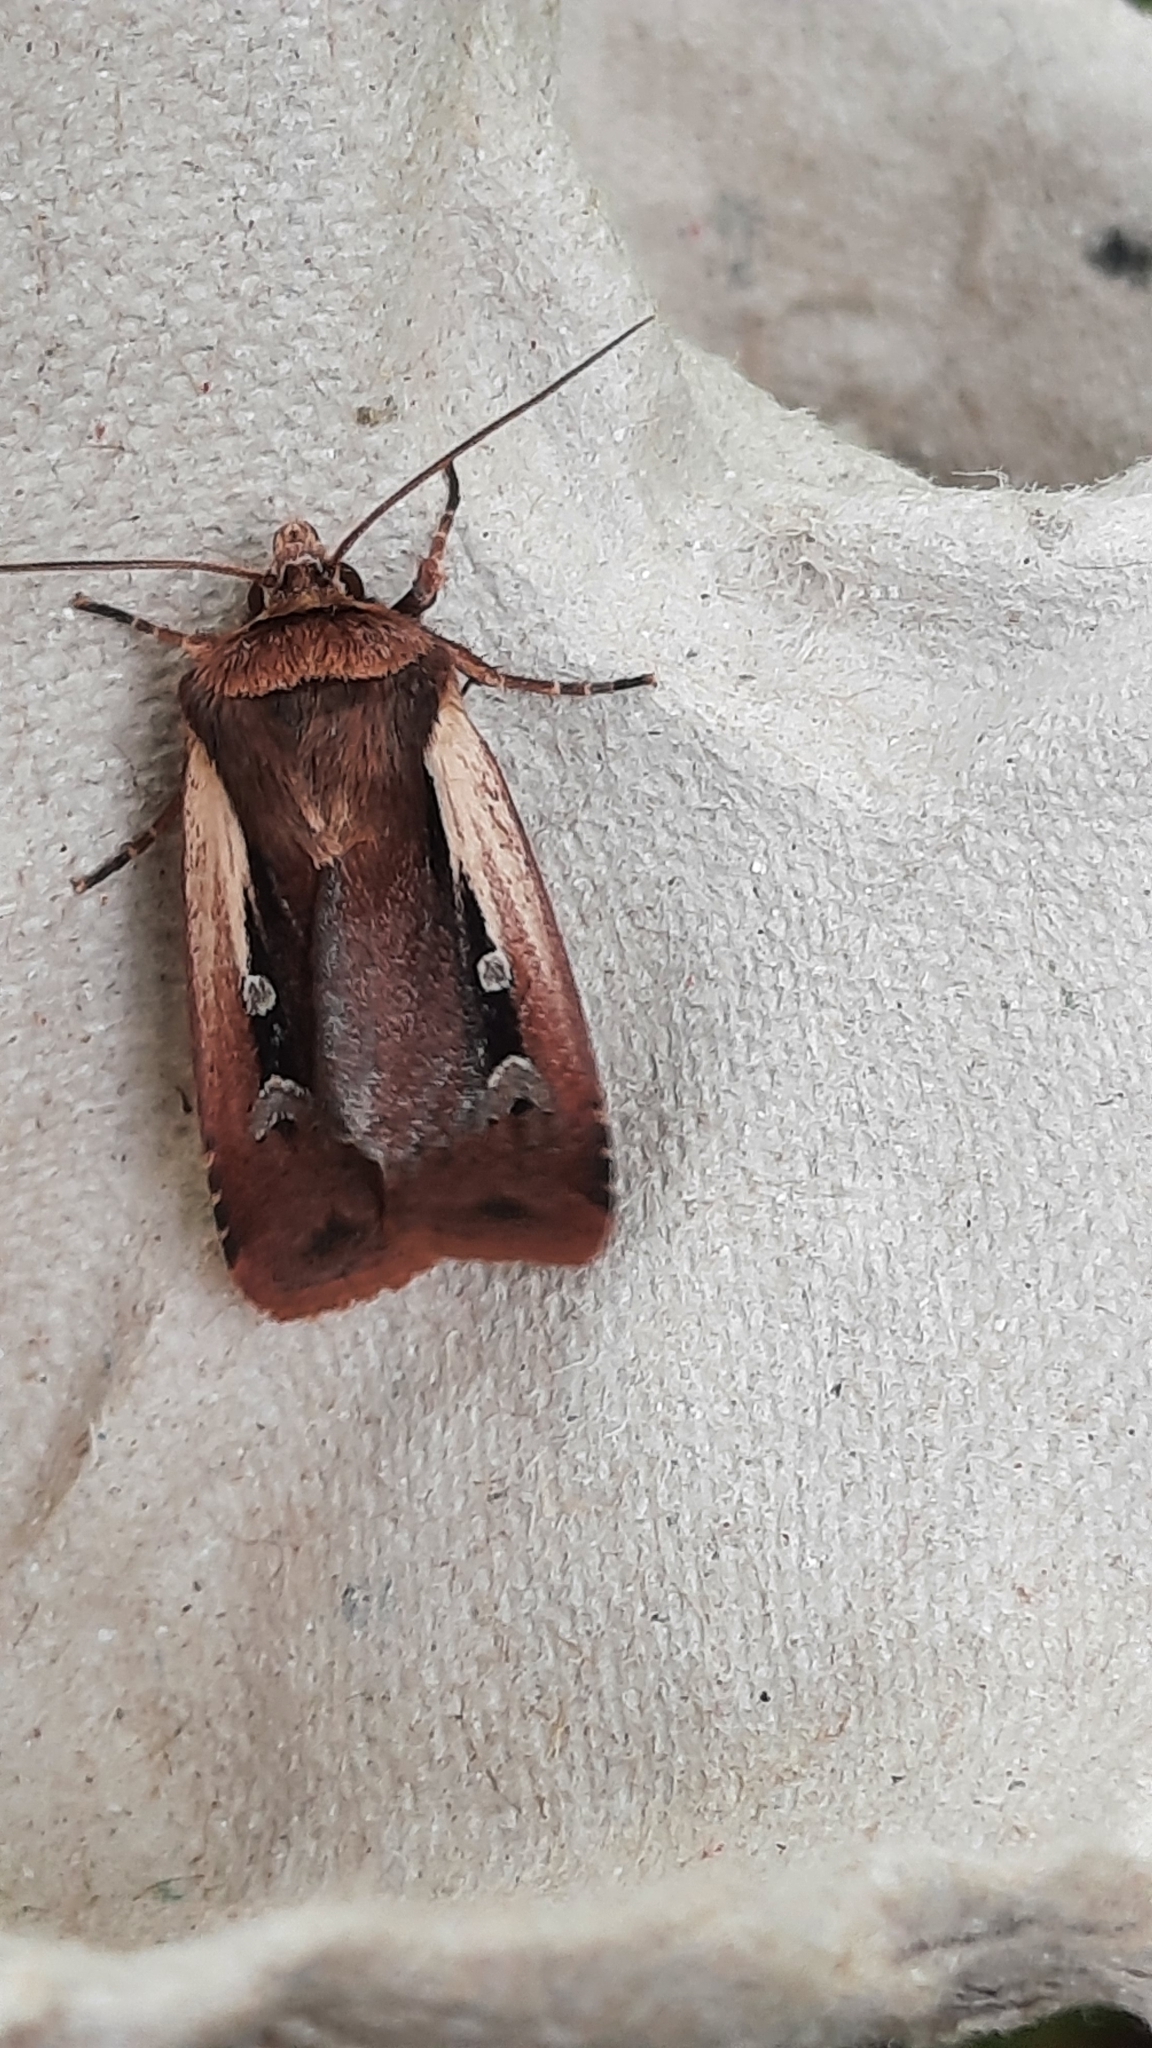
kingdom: Animalia
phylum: Arthropoda
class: Insecta
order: Lepidoptera
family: Noctuidae
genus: Ochropleura
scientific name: Ochropleura plecta
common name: Flame shoulder
